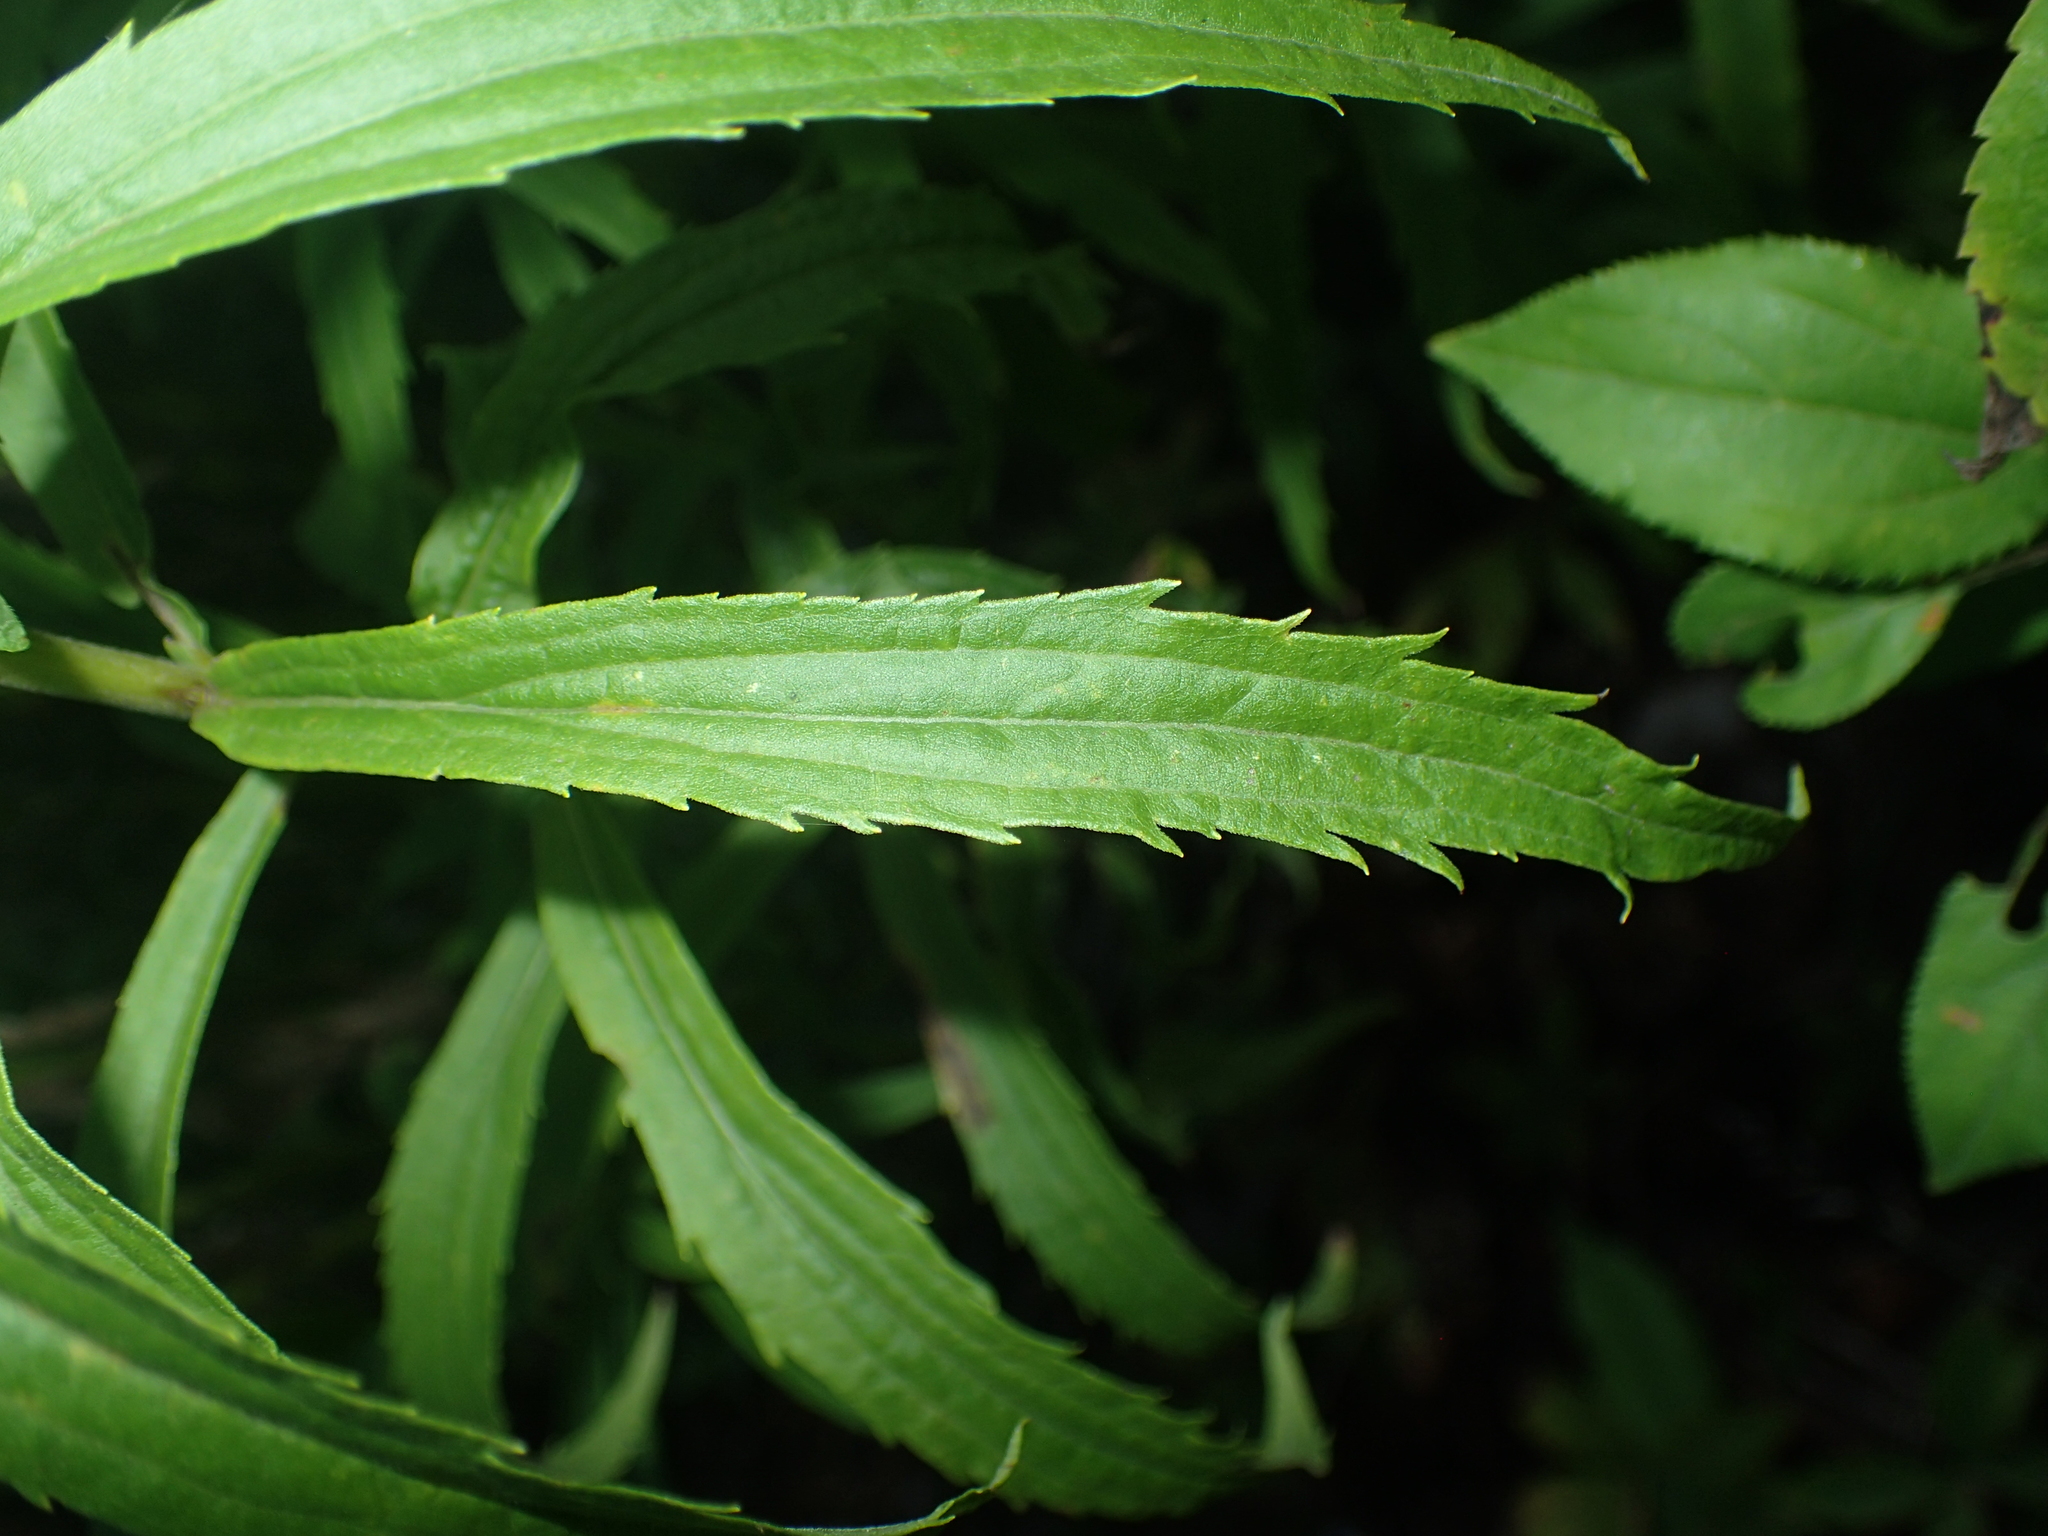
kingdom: Plantae
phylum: Tracheophyta
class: Magnoliopsida
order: Asterales
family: Asteraceae
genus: Solidago
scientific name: Solidago canadensis
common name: Canada goldenrod
